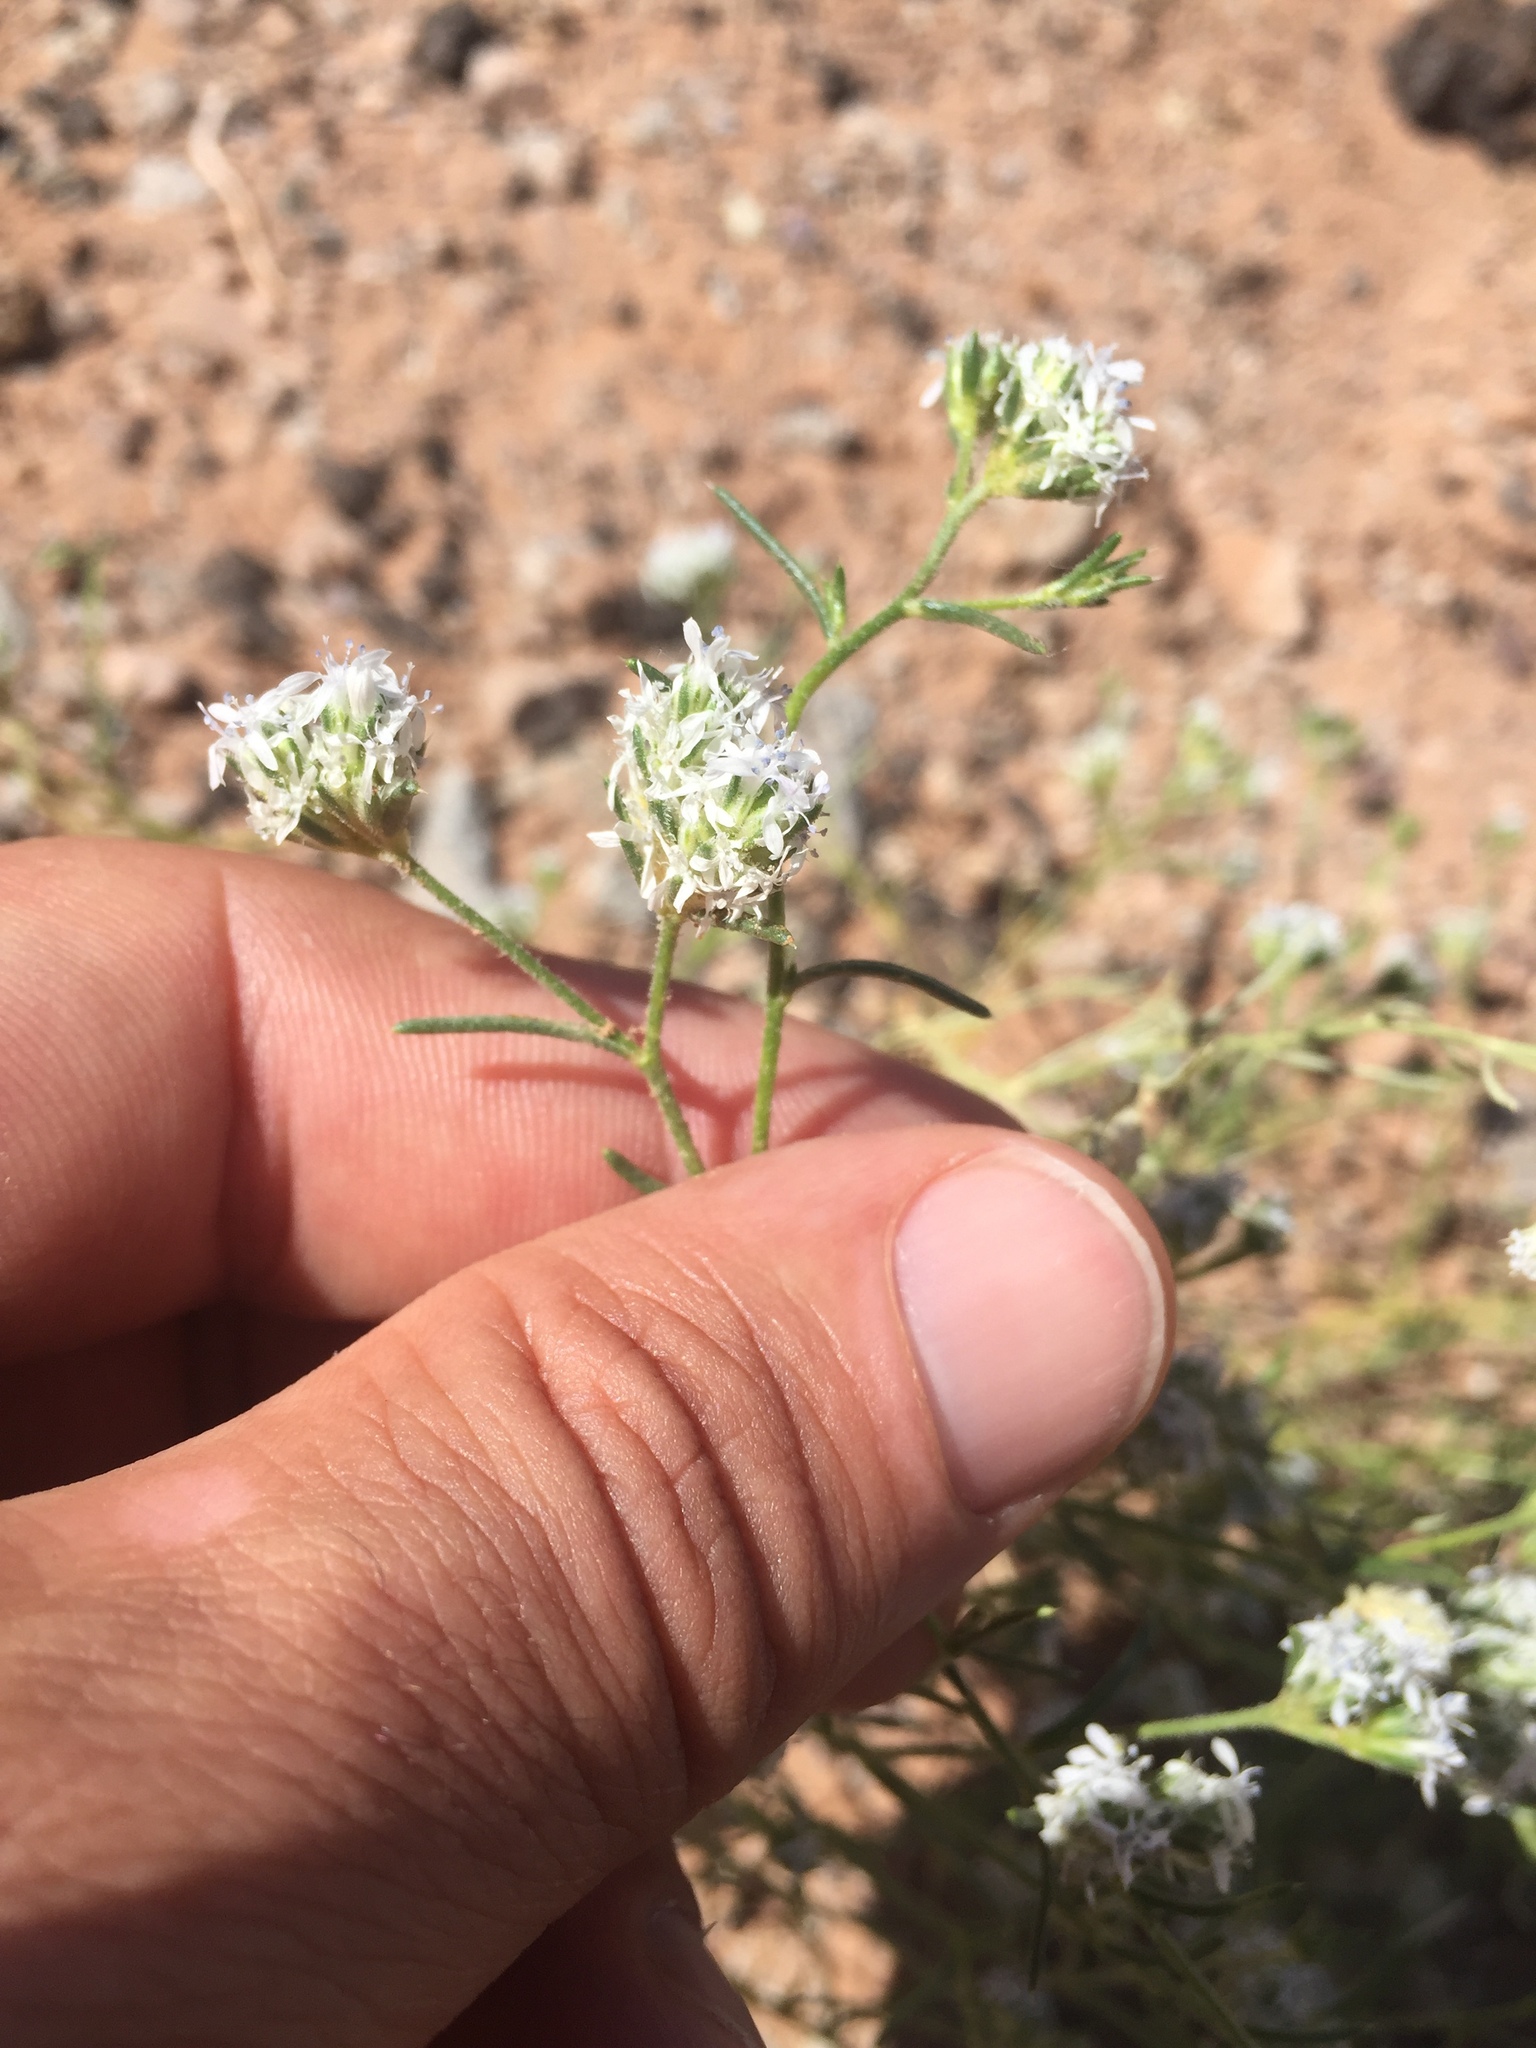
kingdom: Plantae
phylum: Tracheophyta
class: Magnoliopsida
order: Ericales
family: Polemoniaceae
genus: Ipomopsis
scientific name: Ipomopsis congesta
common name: Ball-head gilia
